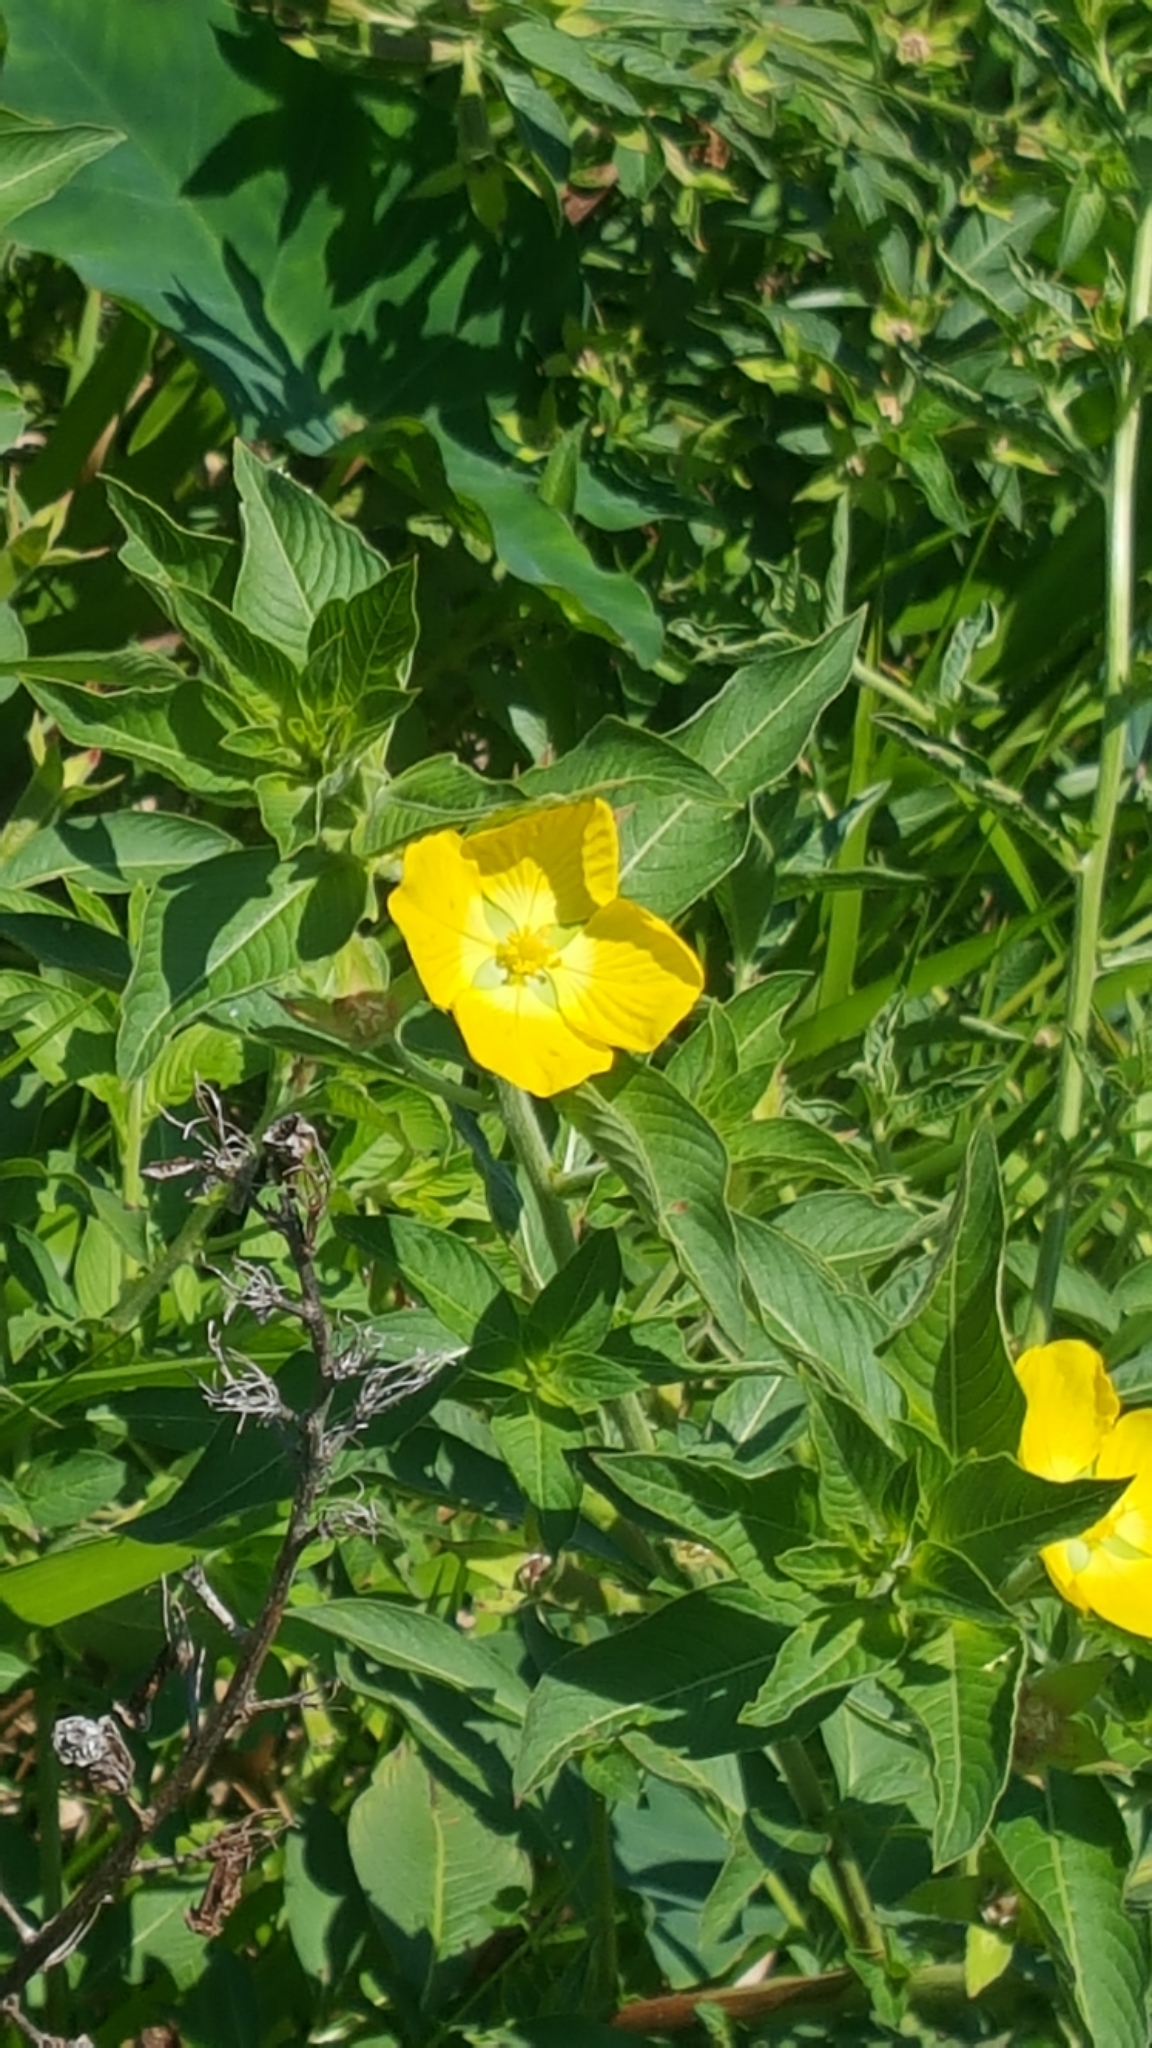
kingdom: Plantae
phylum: Tracheophyta
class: Magnoliopsida
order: Myrtales
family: Onagraceae
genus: Ludwigia
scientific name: Ludwigia peruviana
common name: Peruvian primrose-willow
